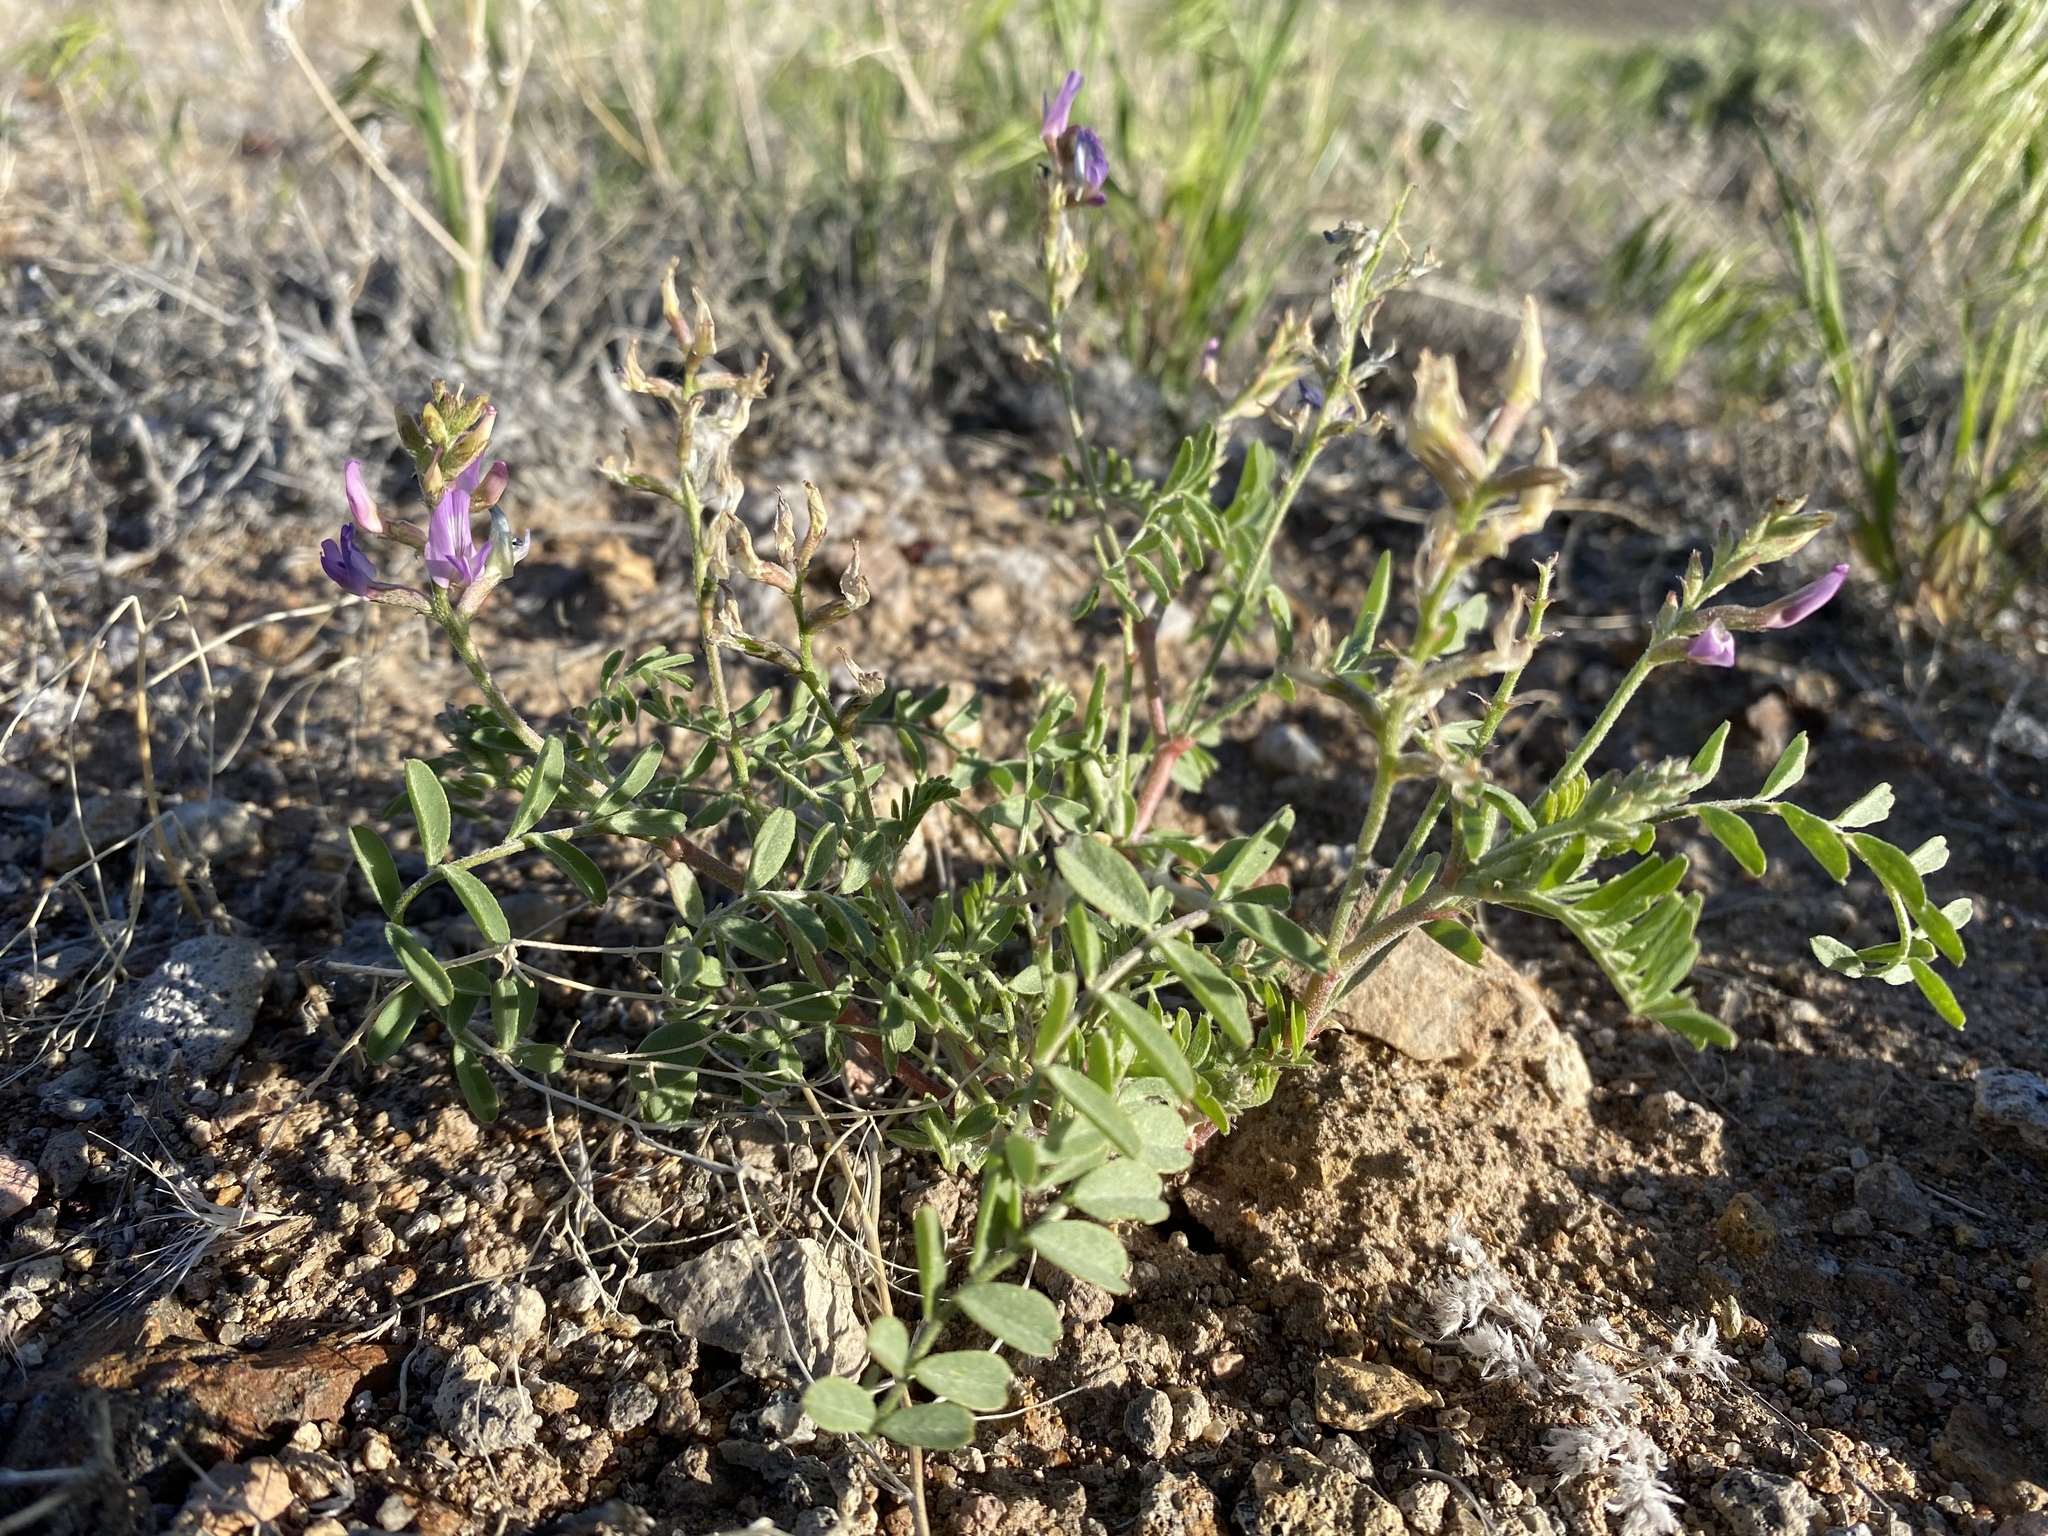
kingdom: Plantae
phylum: Tracheophyta
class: Magnoliopsida
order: Fabales
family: Fabaceae
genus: Astragalus
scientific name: Astragalus lentiginosus
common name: Freckled milkvetch
